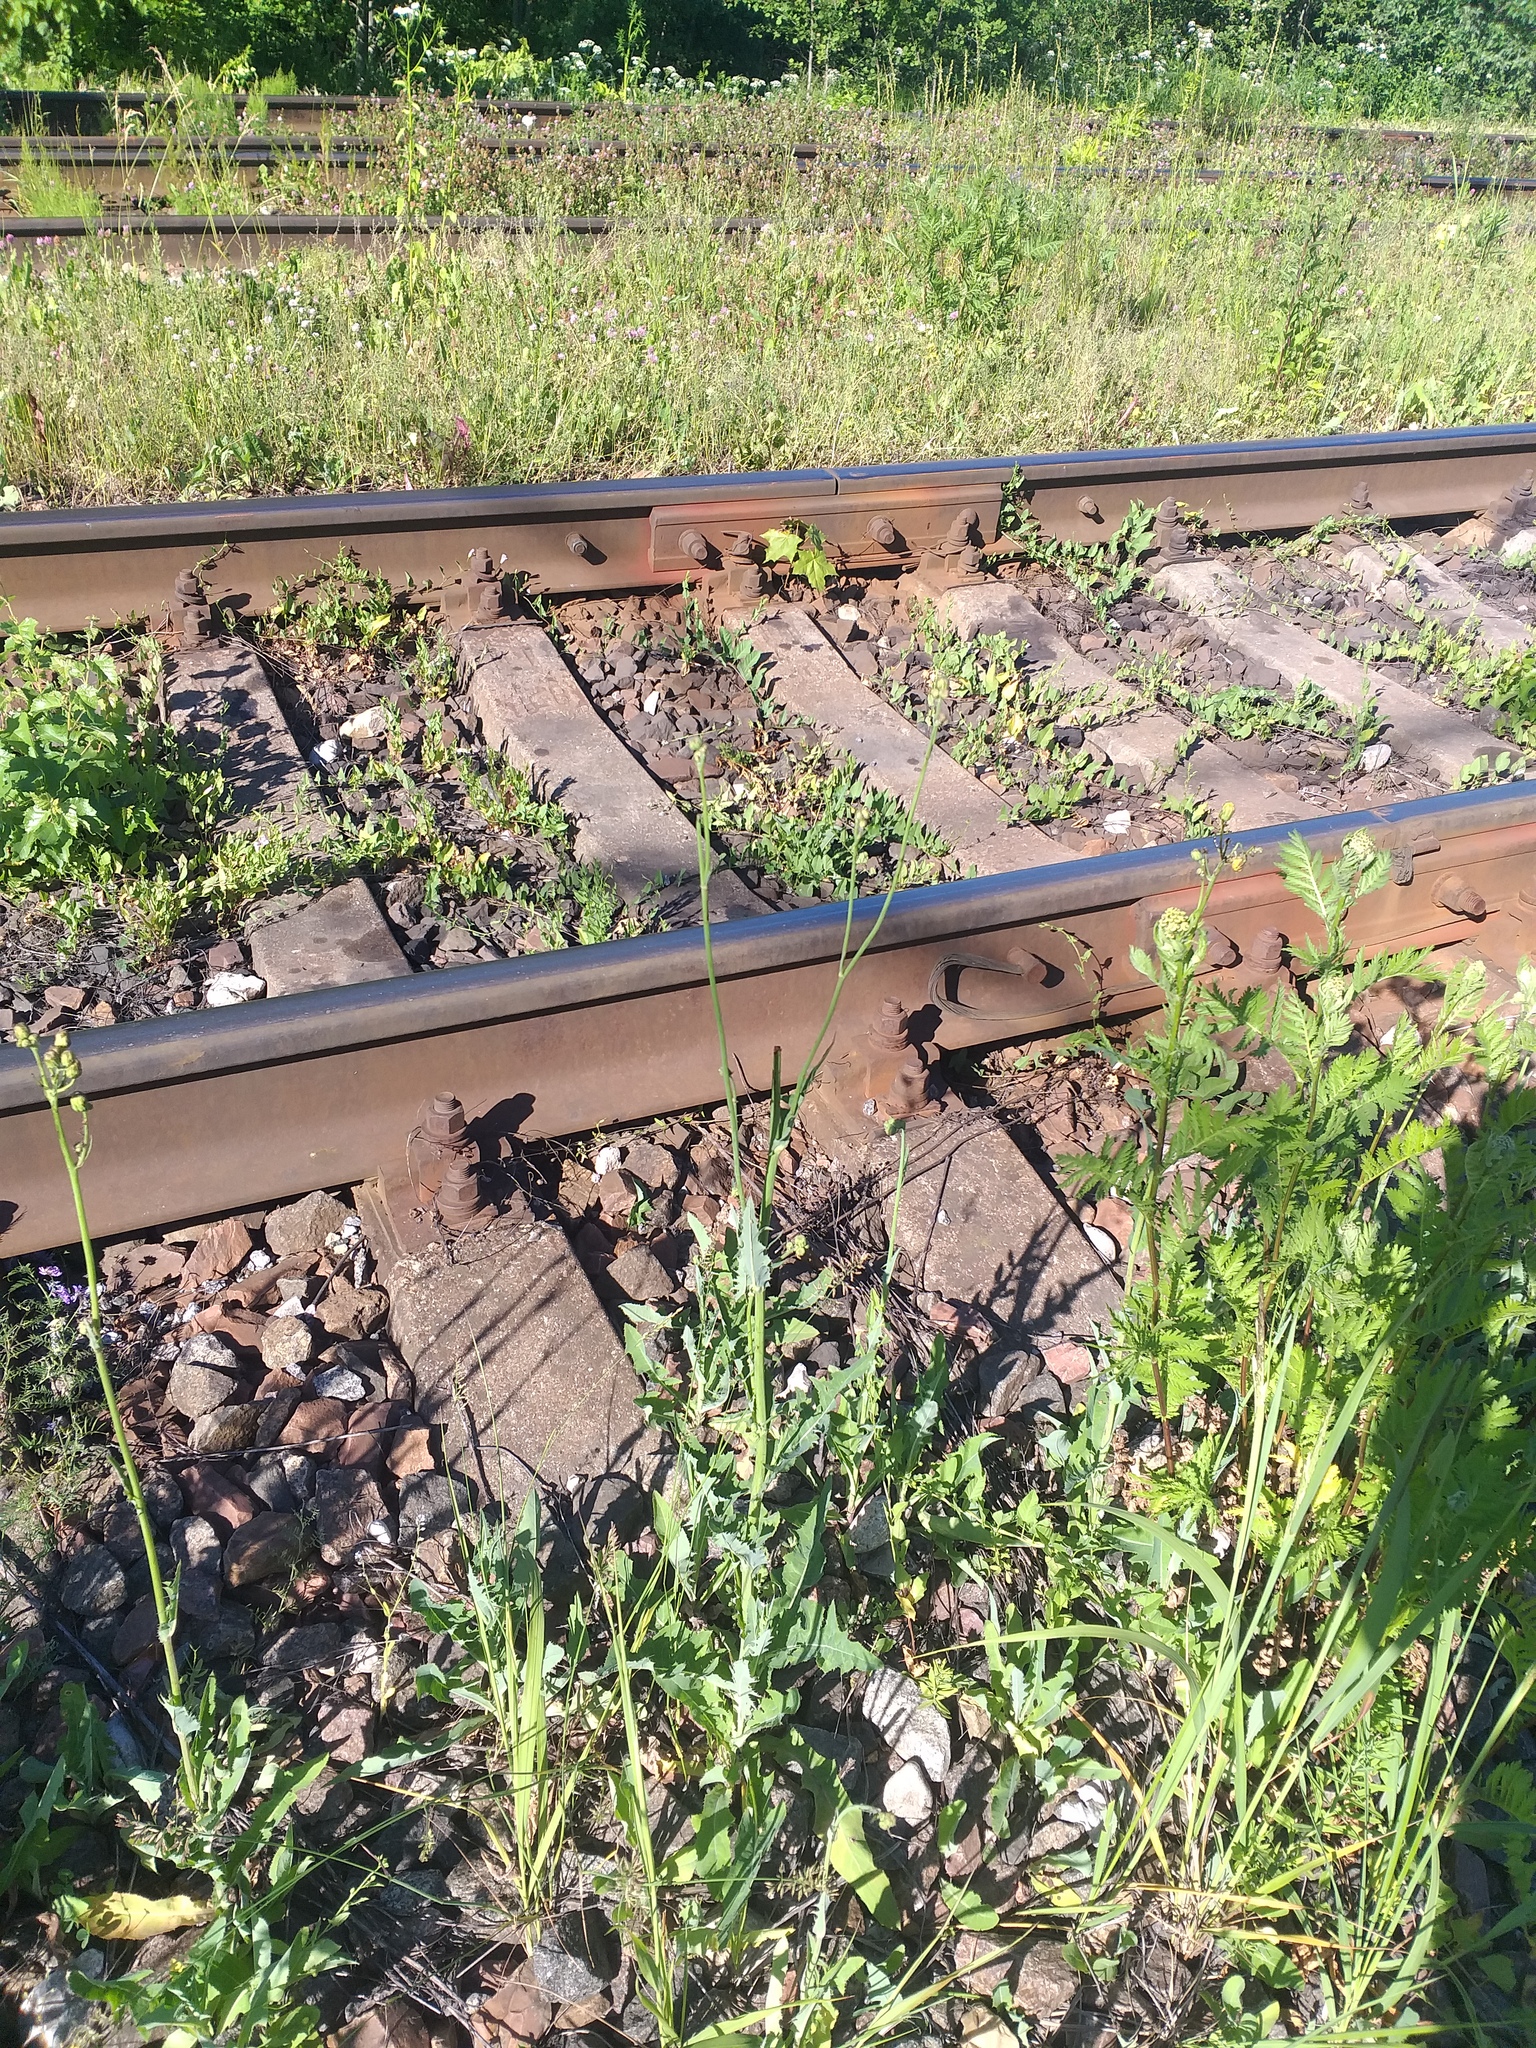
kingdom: Plantae
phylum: Tracheophyta
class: Magnoliopsida
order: Asterales
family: Asteraceae
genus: Sonchus
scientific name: Sonchus arvensis
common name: Perennial sow-thistle
